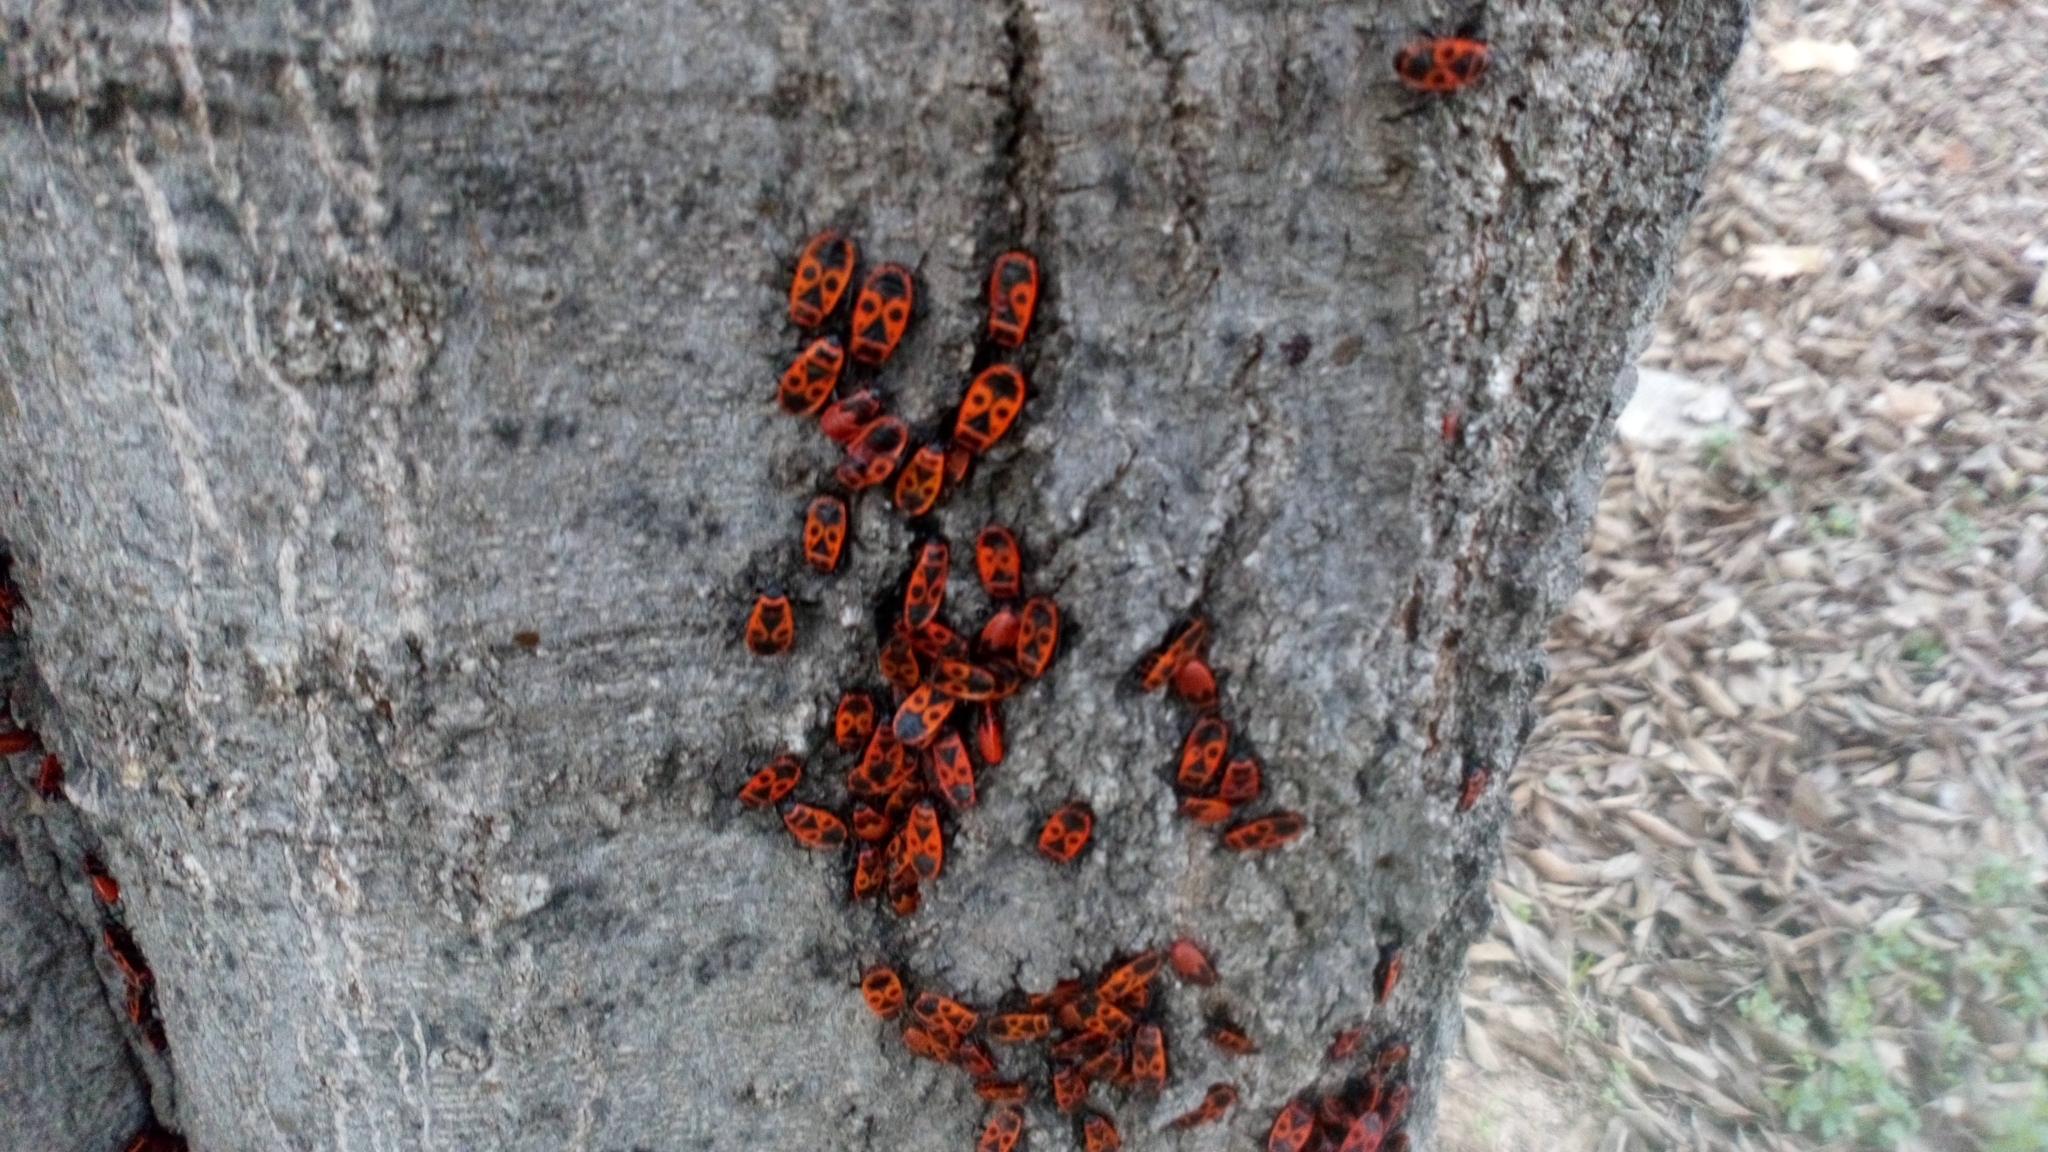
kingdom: Animalia
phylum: Arthropoda
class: Insecta
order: Hemiptera
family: Pyrrhocoridae
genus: Pyrrhocoris
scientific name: Pyrrhocoris apterus
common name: Firebug
